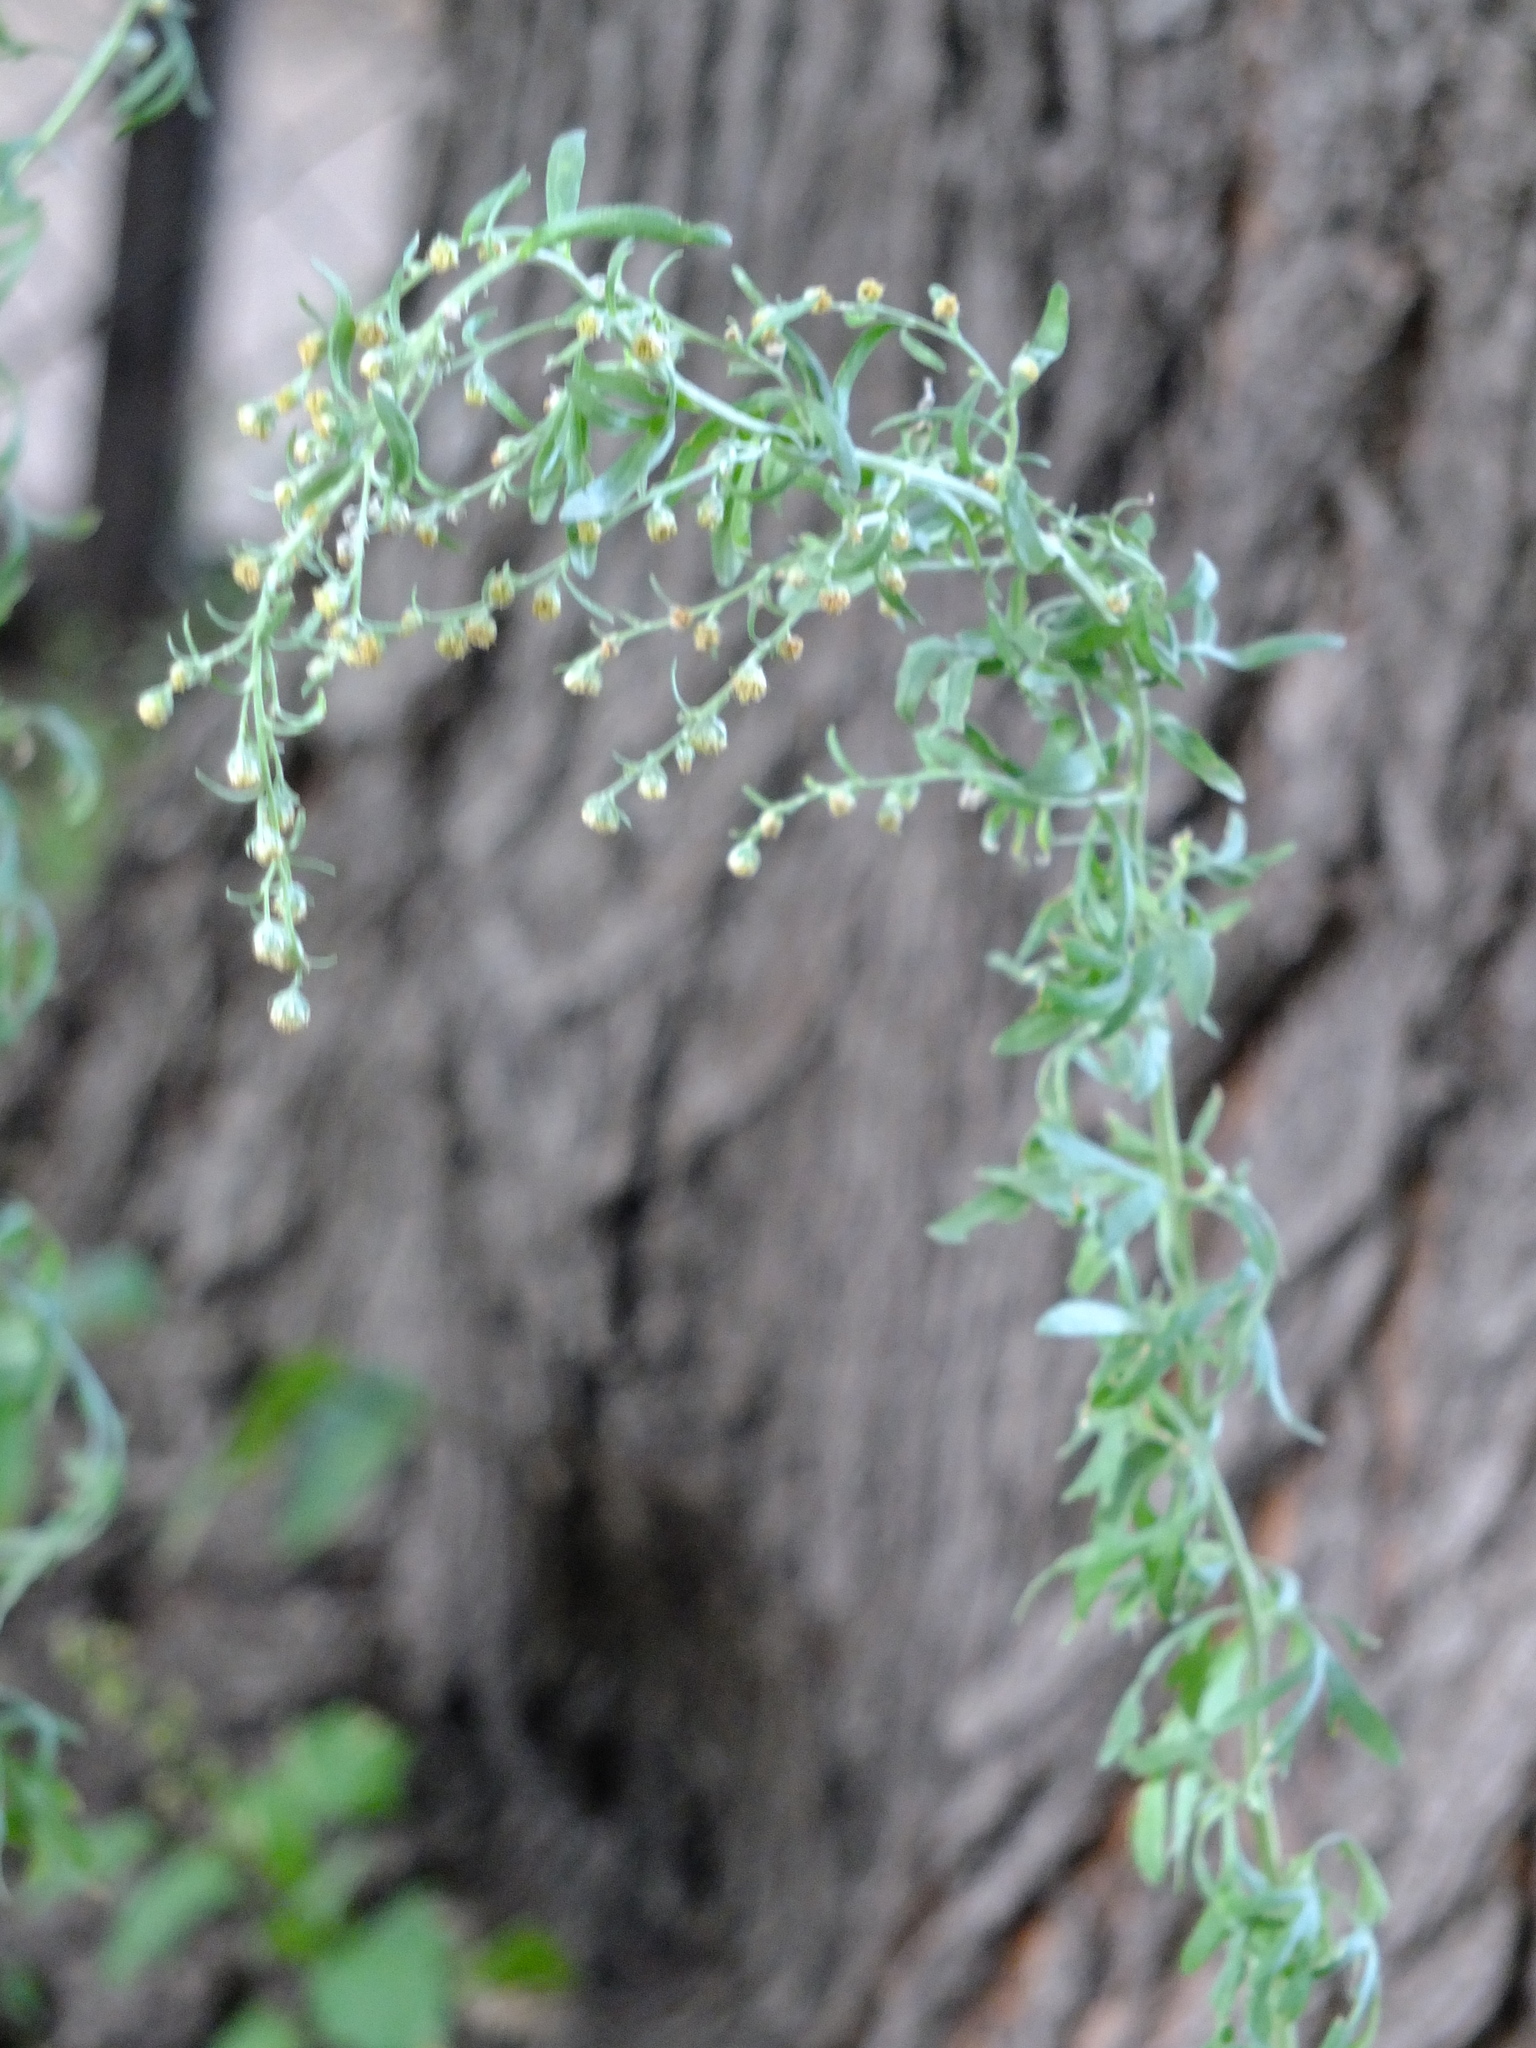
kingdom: Plantae
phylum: Tracheophyta
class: Magnoliopsida
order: Asterales
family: Asteraceae
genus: Artemisia
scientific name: Artemisia absinthium
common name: Wormwood
